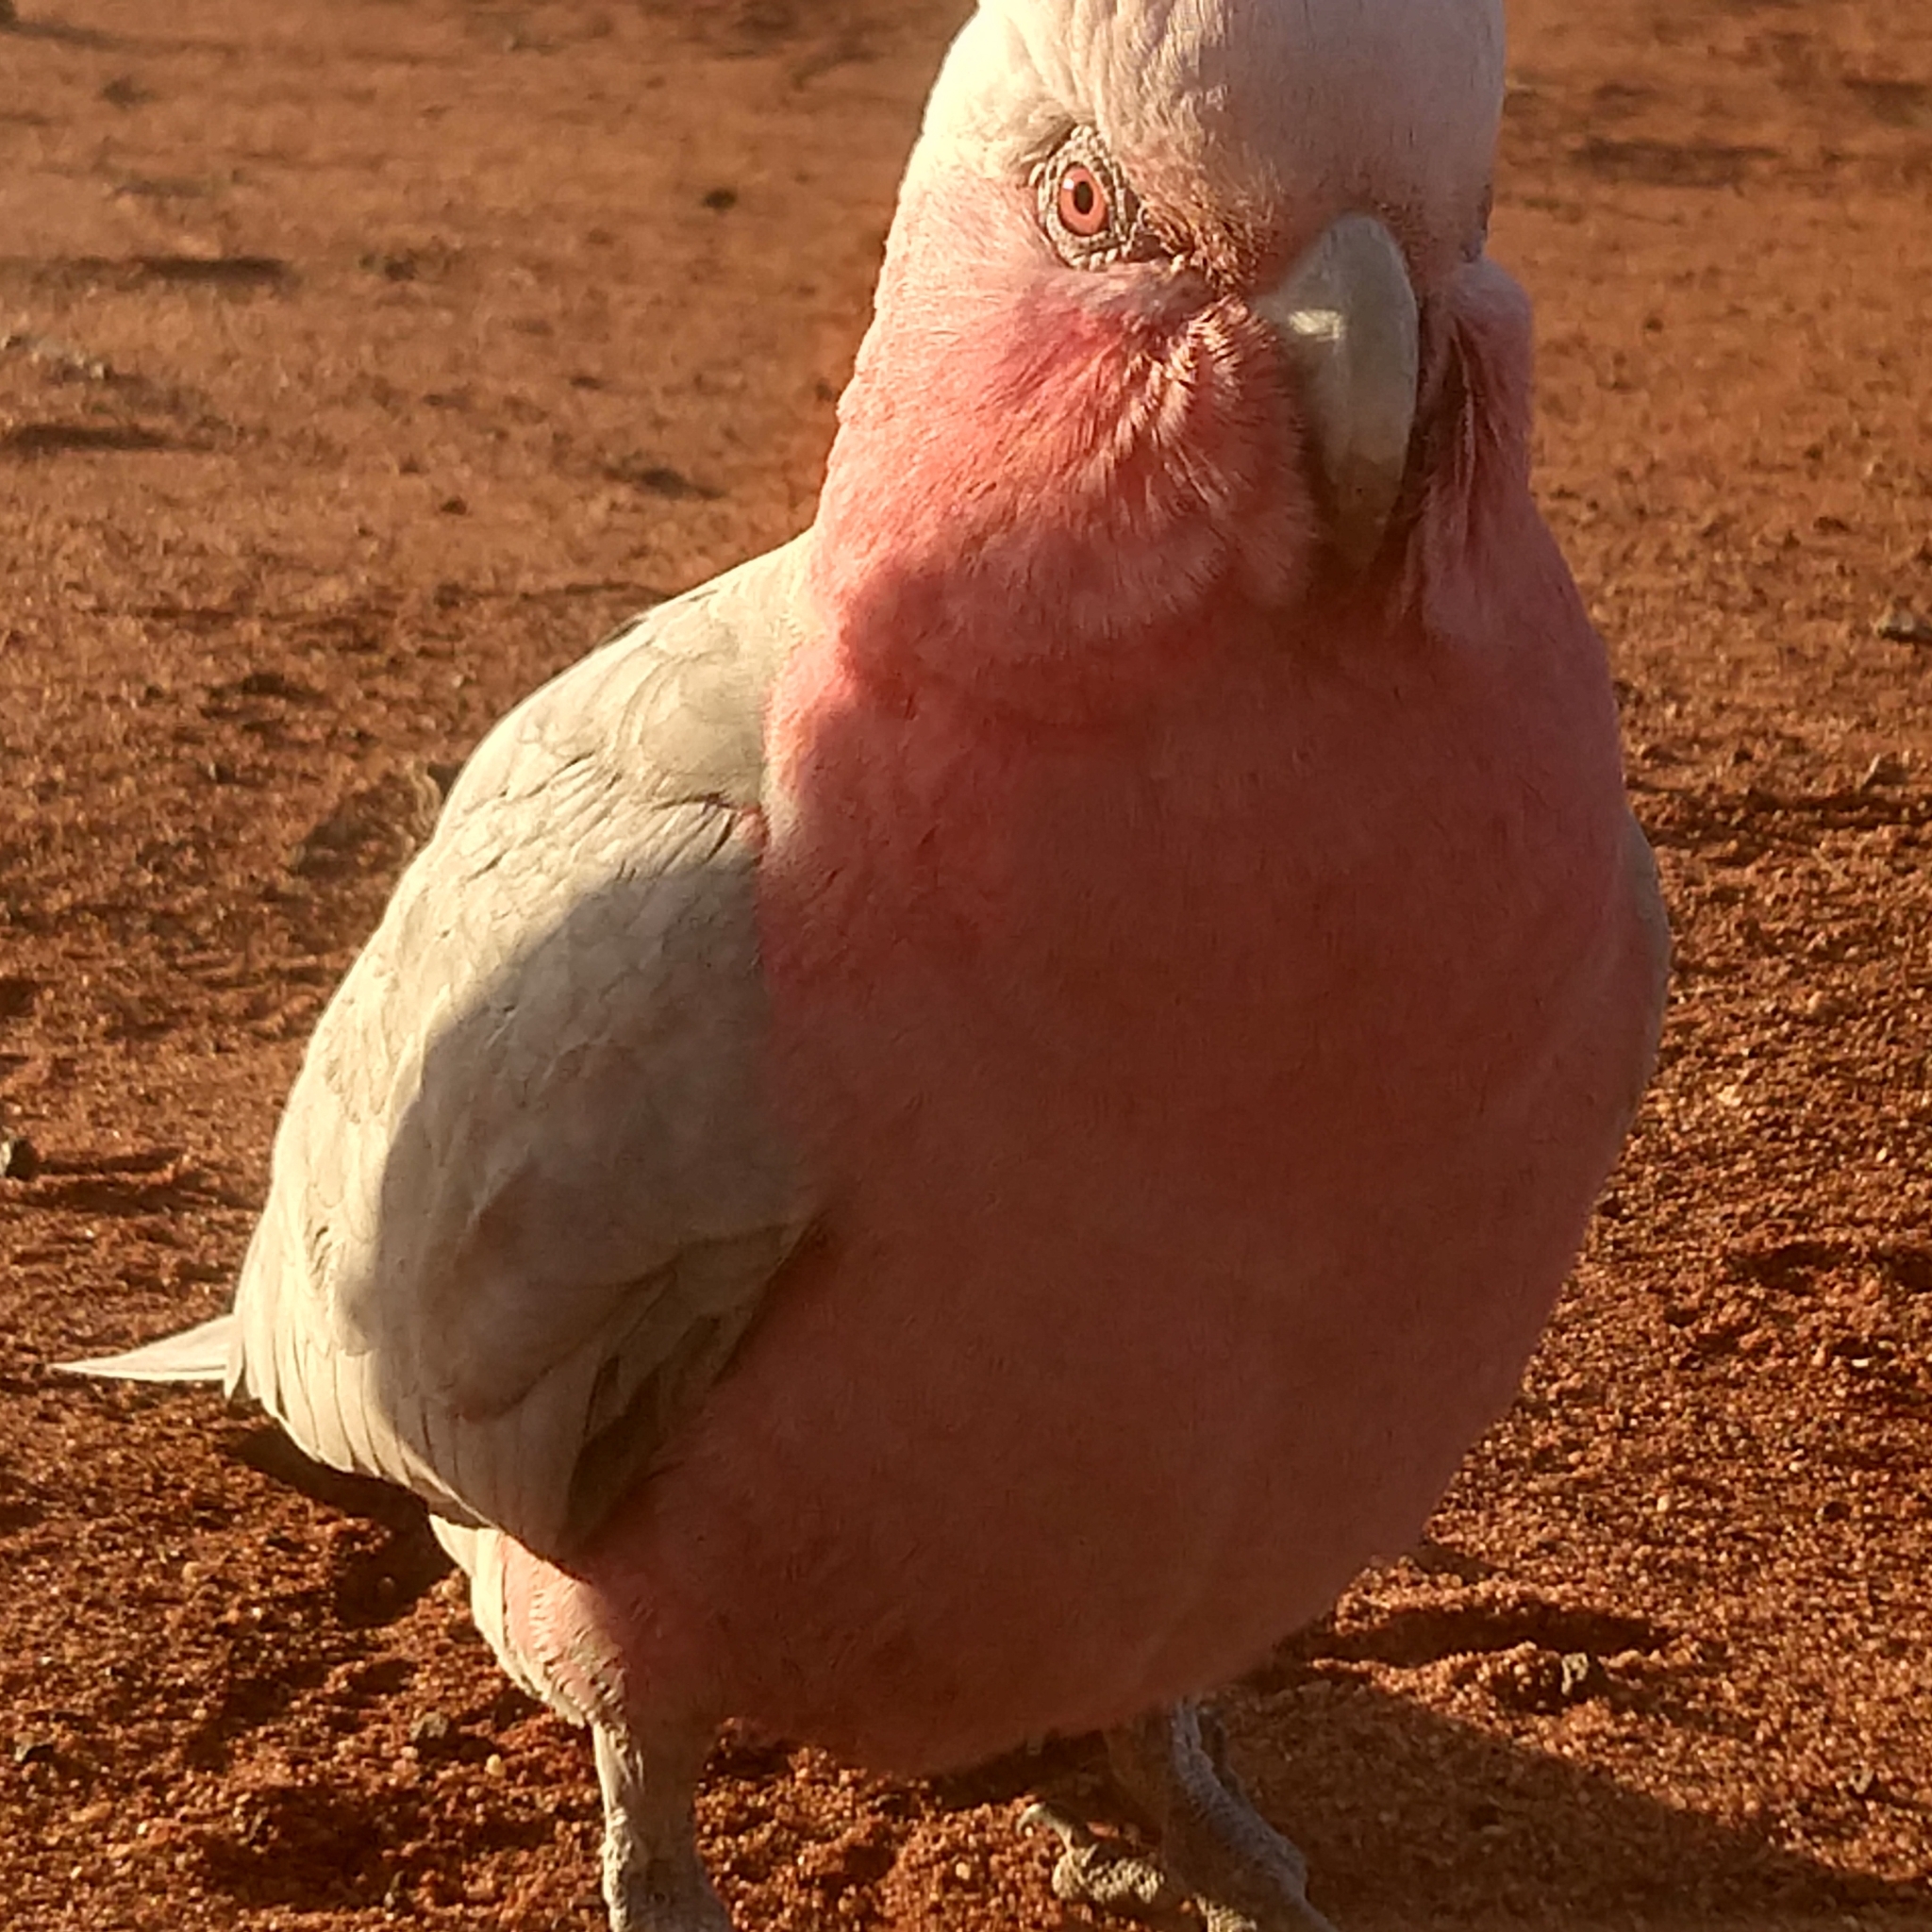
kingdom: Animalia
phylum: Chordata
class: Aves
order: Psittaciformes
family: Psittacidae
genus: Eolophus
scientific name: Eolophus roseicapilla
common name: Galah
